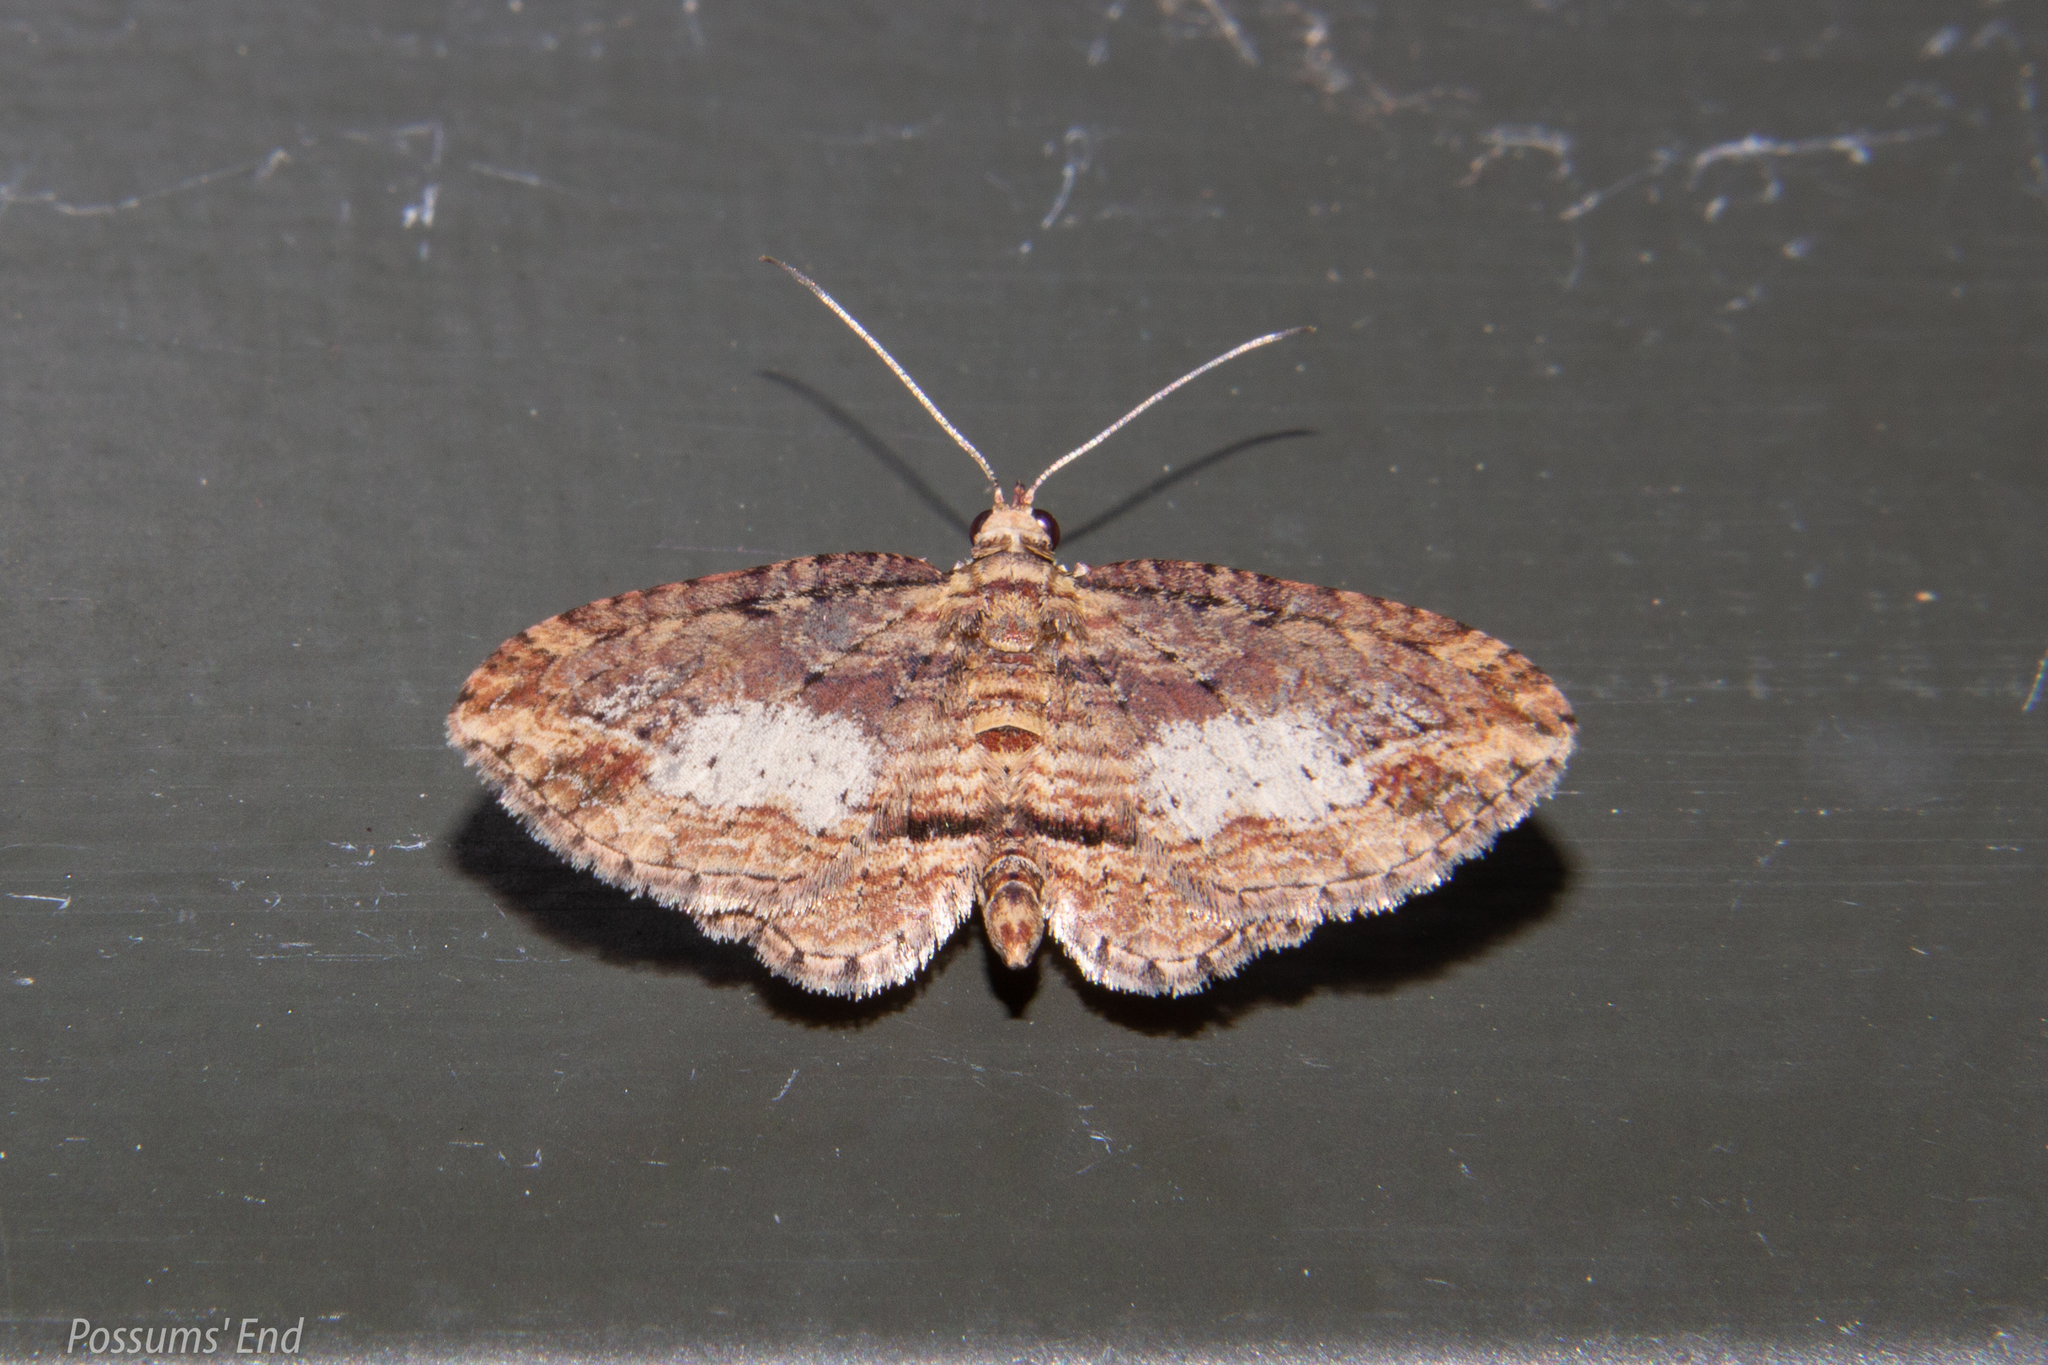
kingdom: Animalia
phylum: Arthropoda
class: Insecta
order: Lepidoptera
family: Geometridae
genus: Chloroclystis
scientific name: Chloroclystis filata
